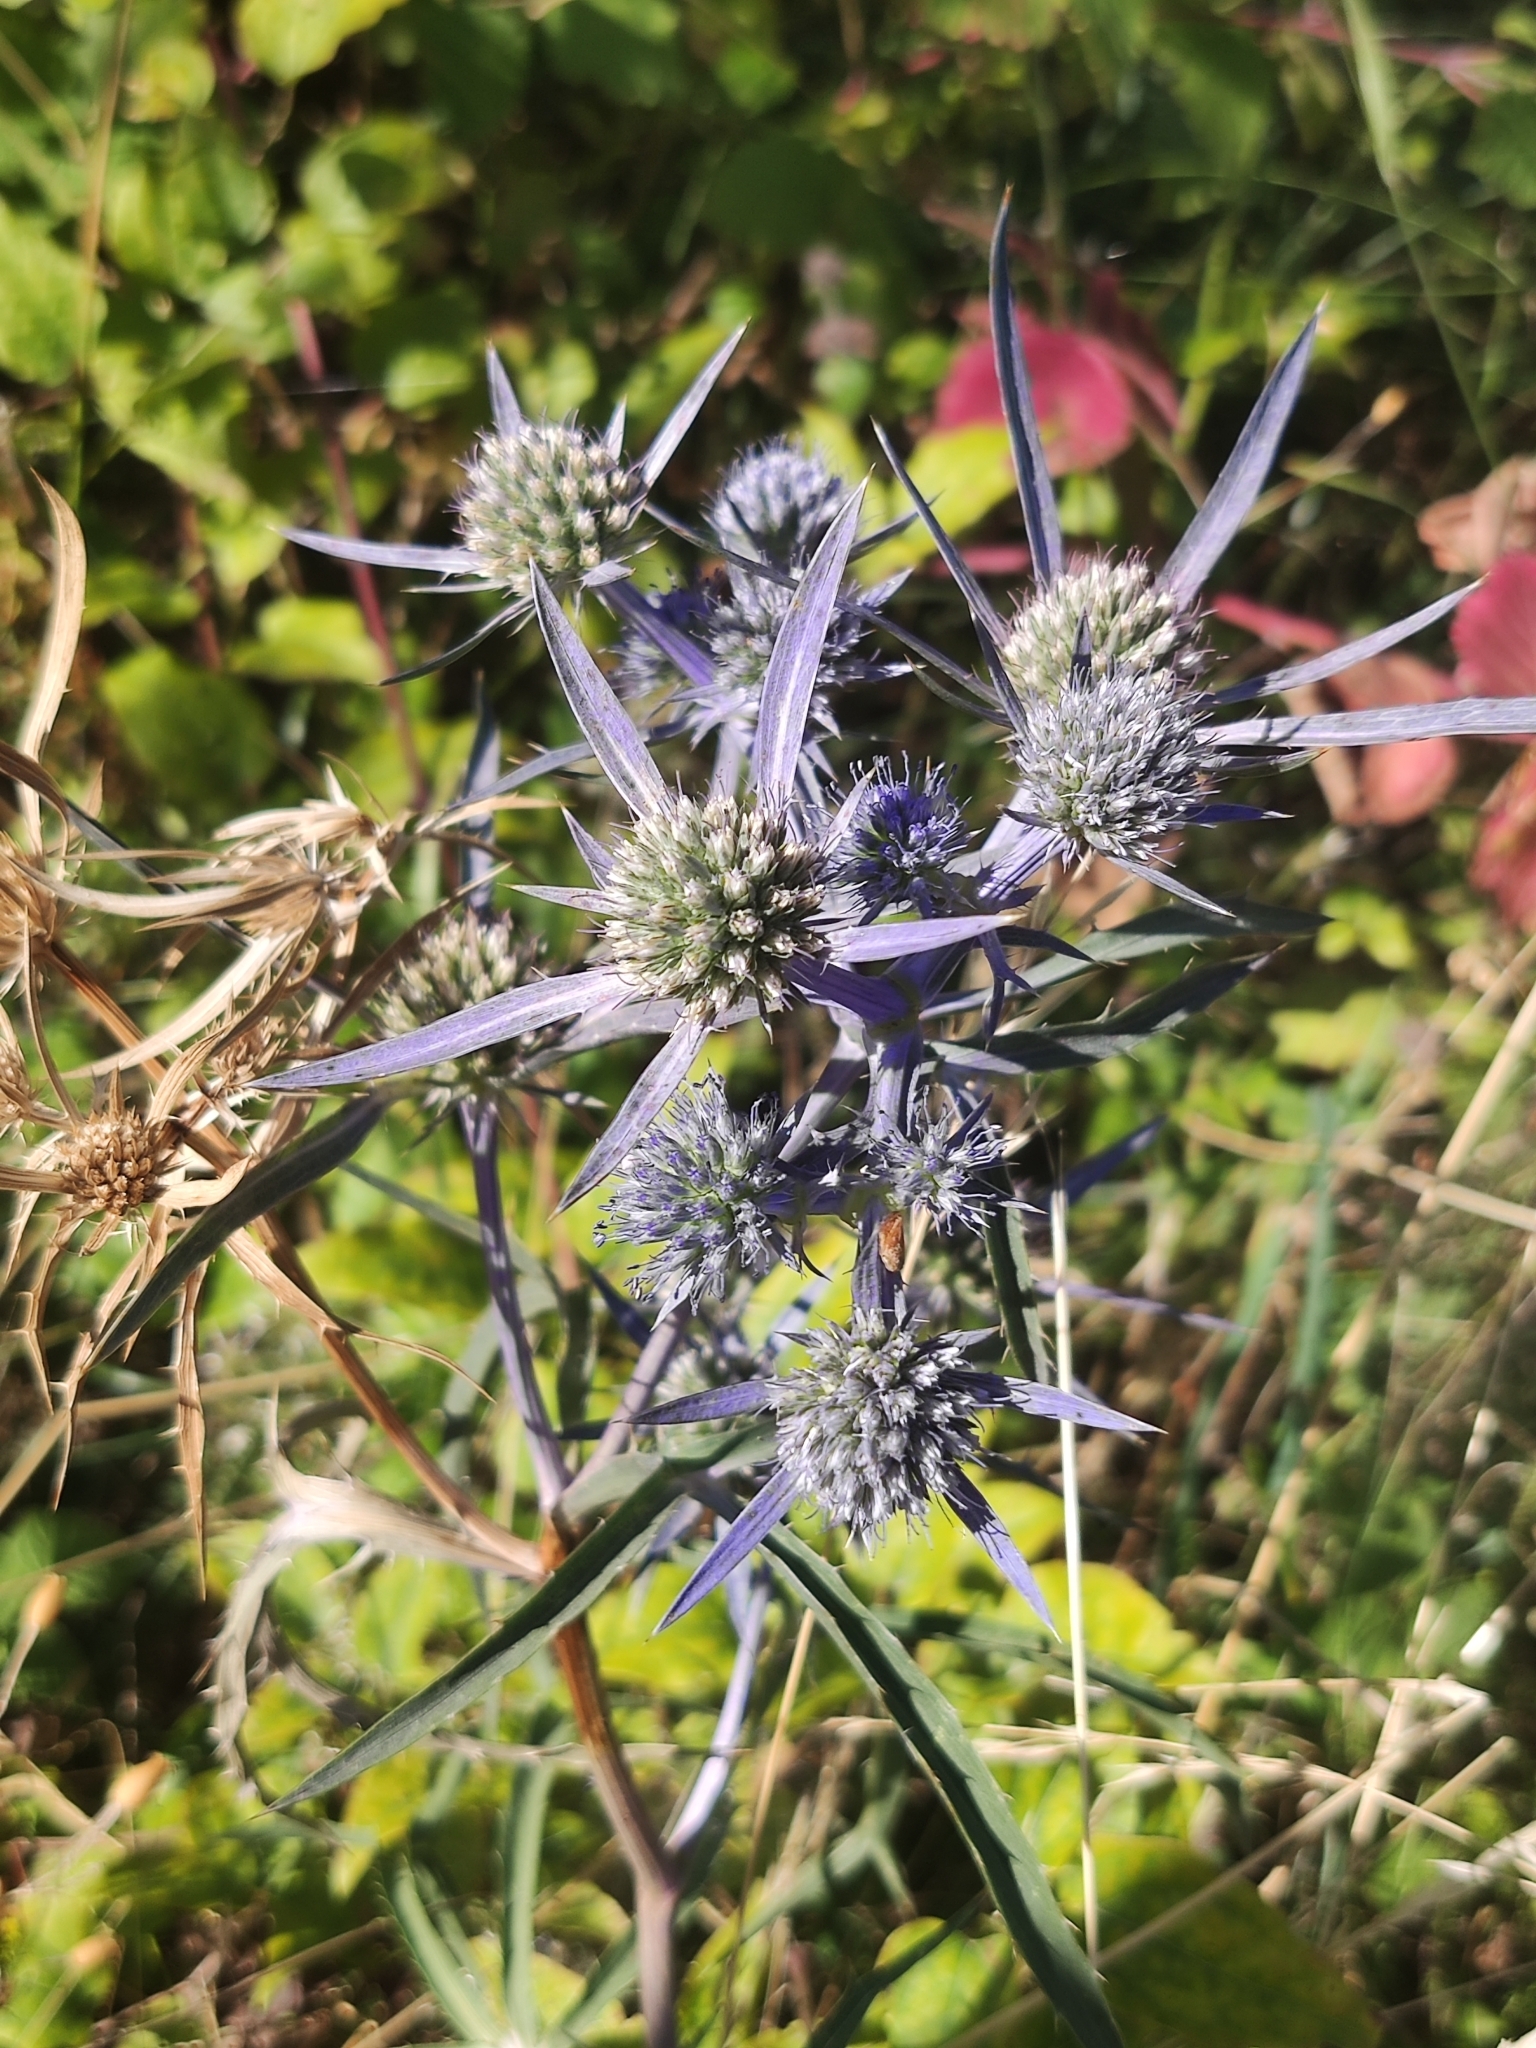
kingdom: Plantae
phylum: Tracheophyta
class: Magnoliopsida
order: Apiales
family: Apiaceae
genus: Eryngium
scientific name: Eryngium amethystinum
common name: Amethyst eryngo
